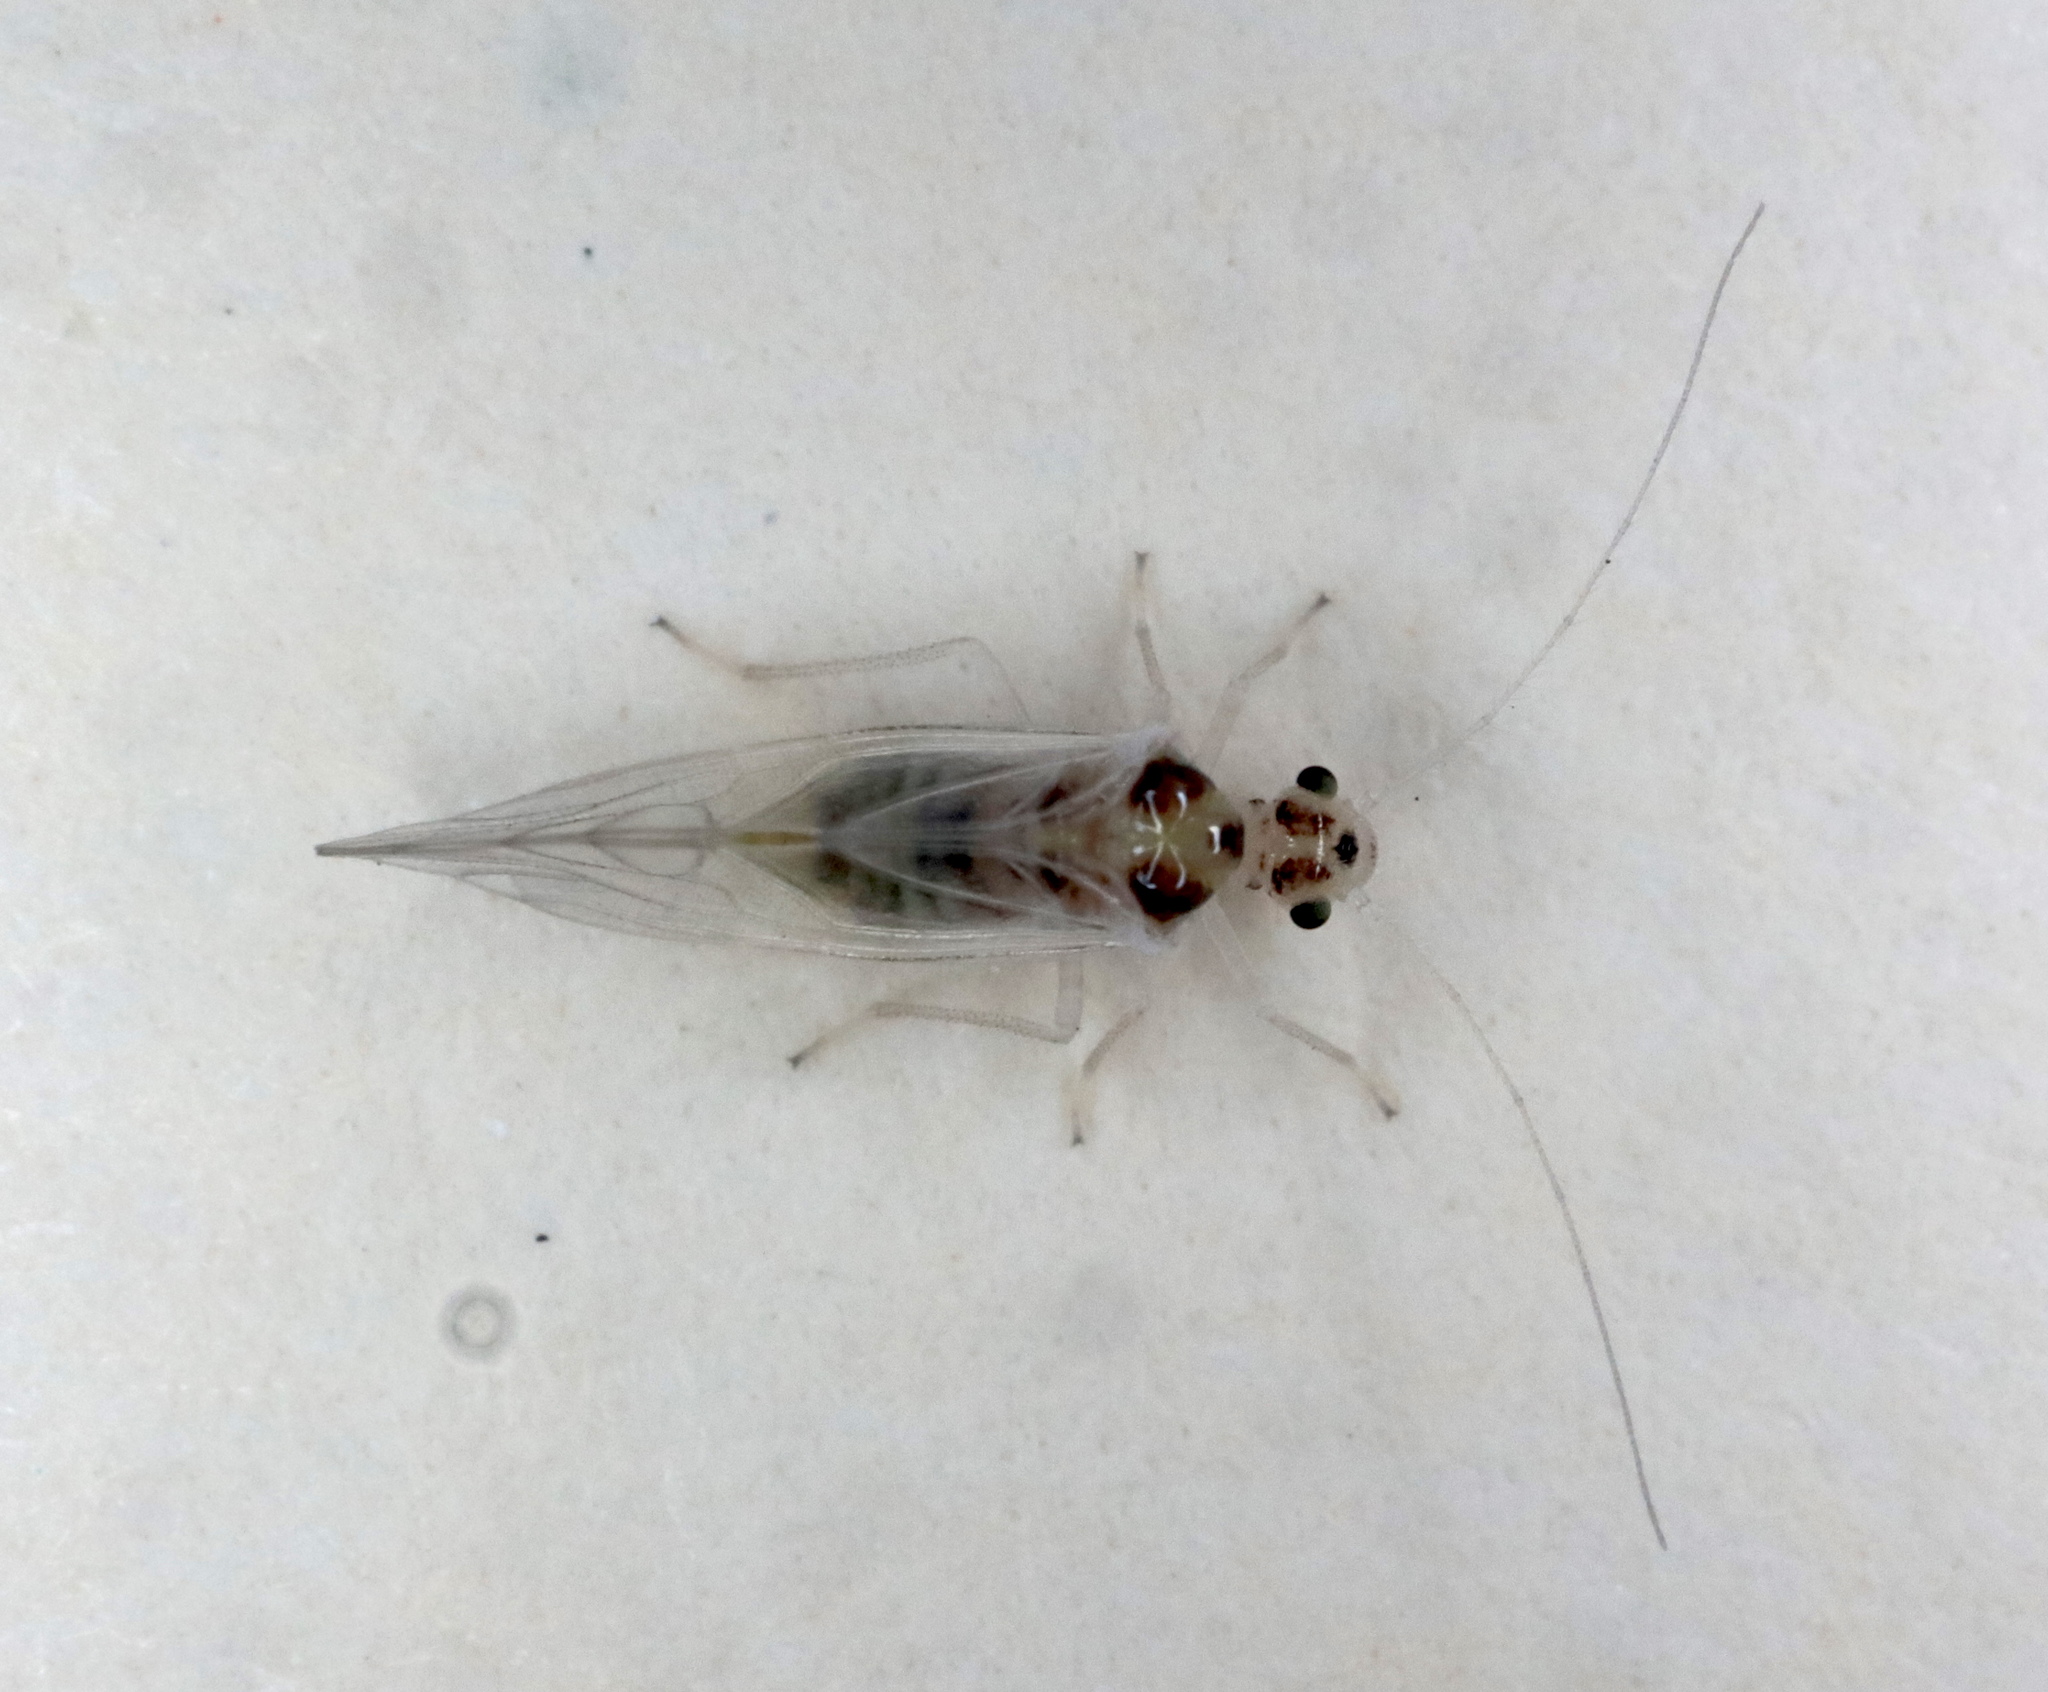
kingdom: Animalia
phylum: Arthropoda
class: Insecta
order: Psocodea
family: Dasydemellidae
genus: Teliapsocus
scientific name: Teliapsocus conterminus
